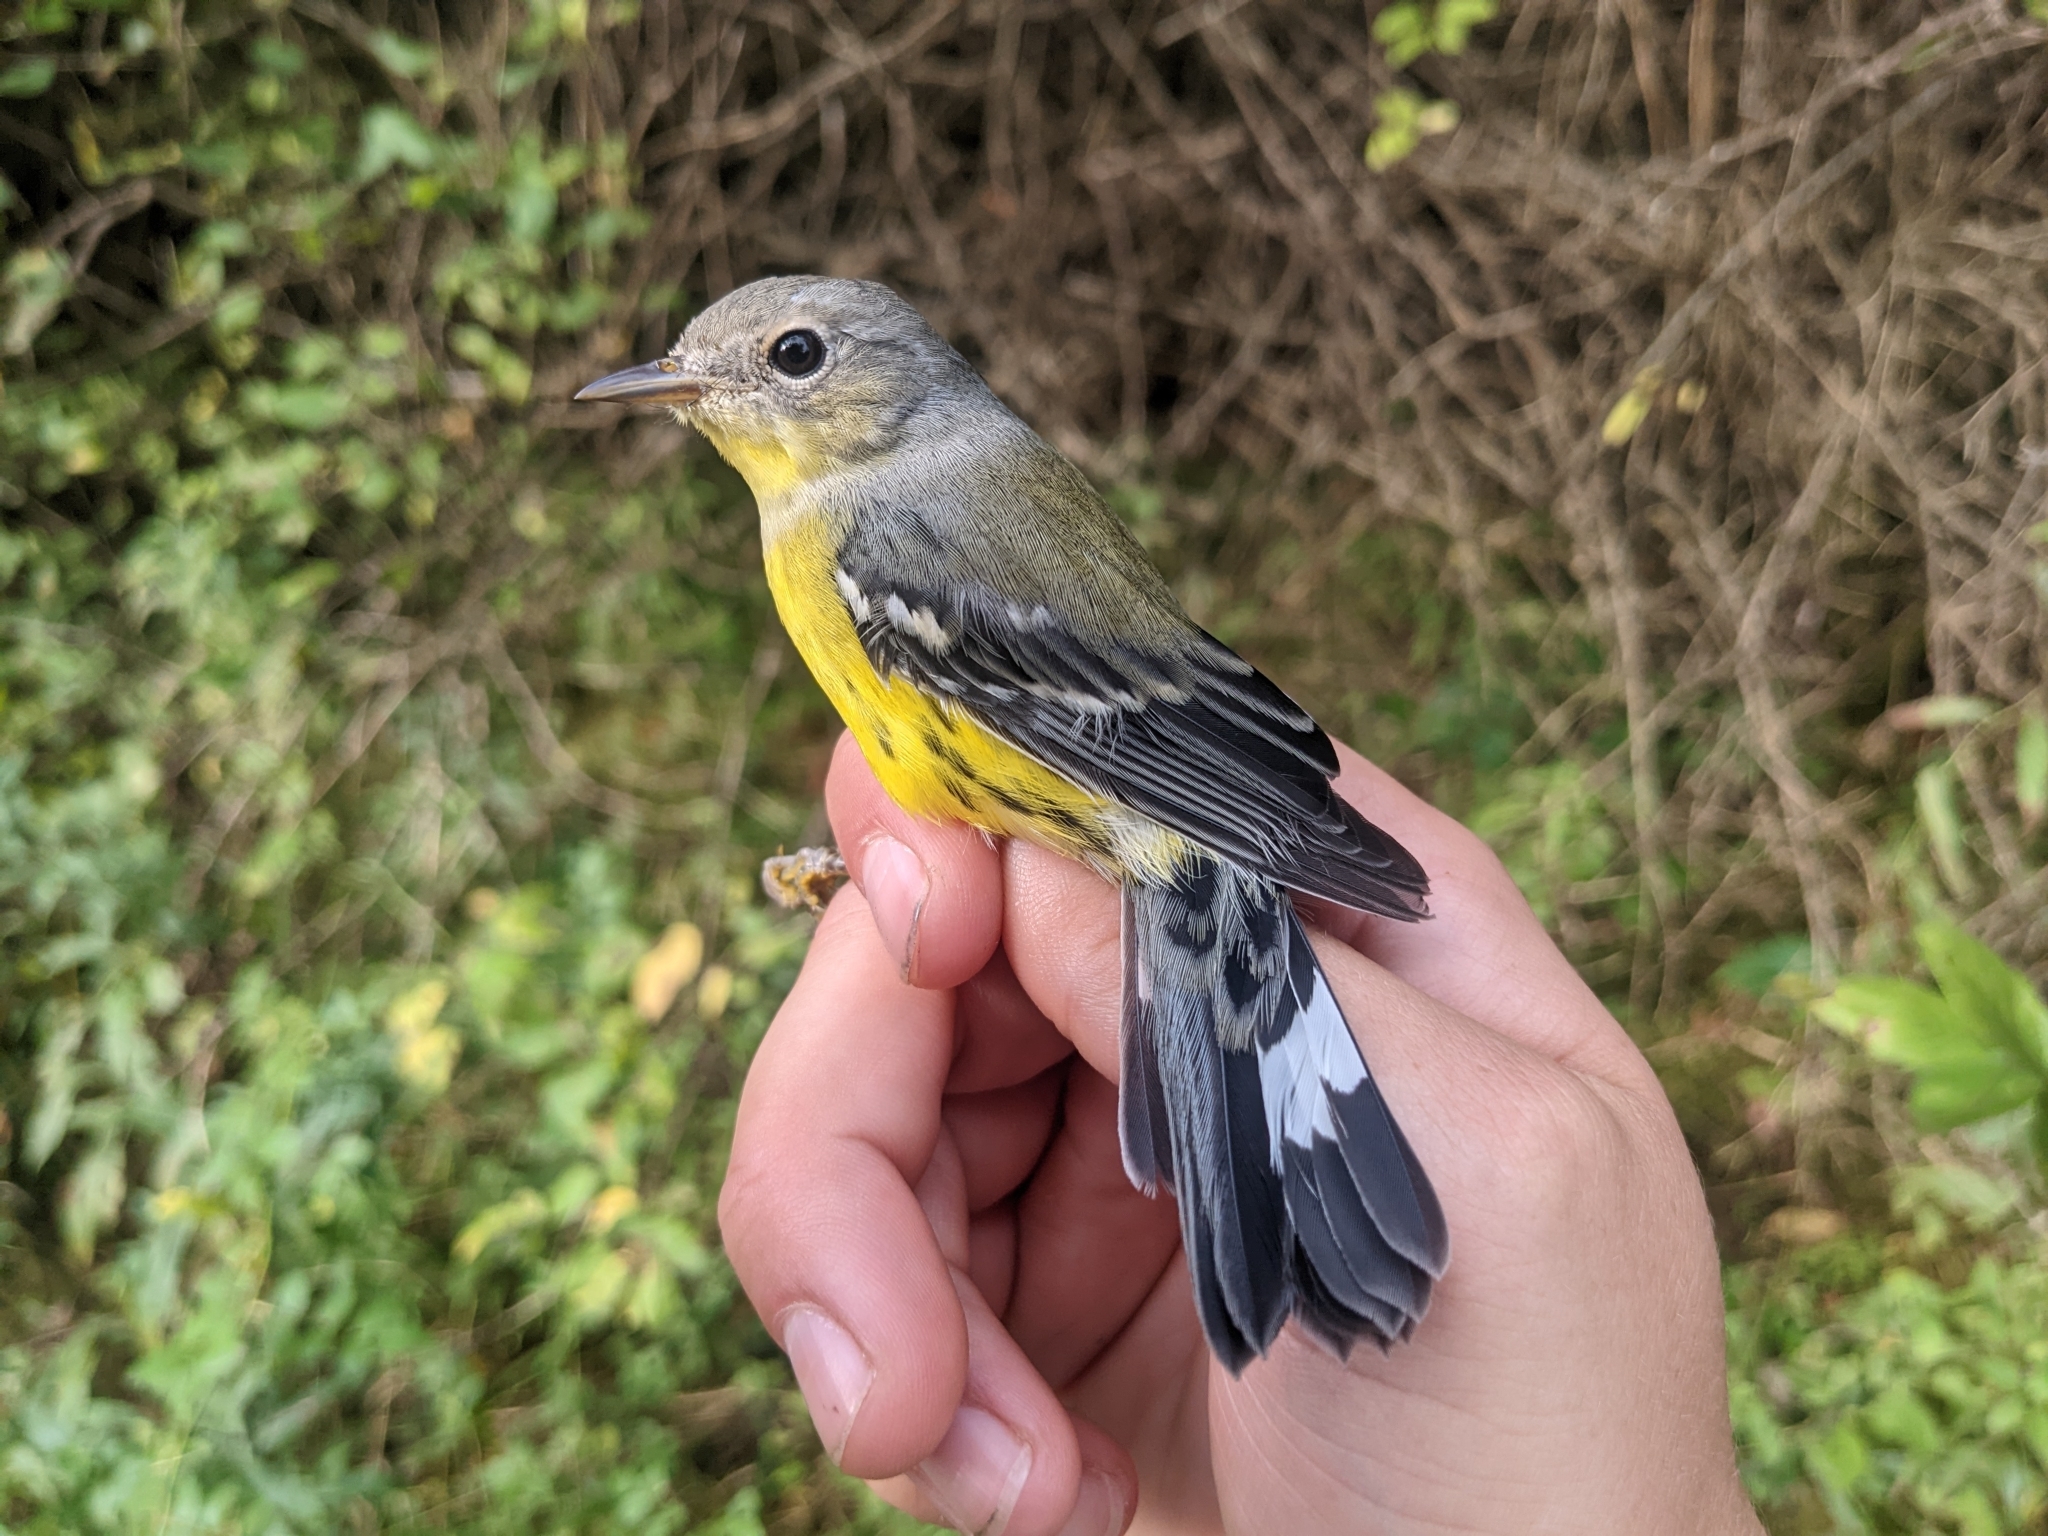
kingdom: Animalia
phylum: Chordata
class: Aves
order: Passeriformes
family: Parulidae
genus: Setophaga
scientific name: Setophaga magnolia
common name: Magnolia warbler
